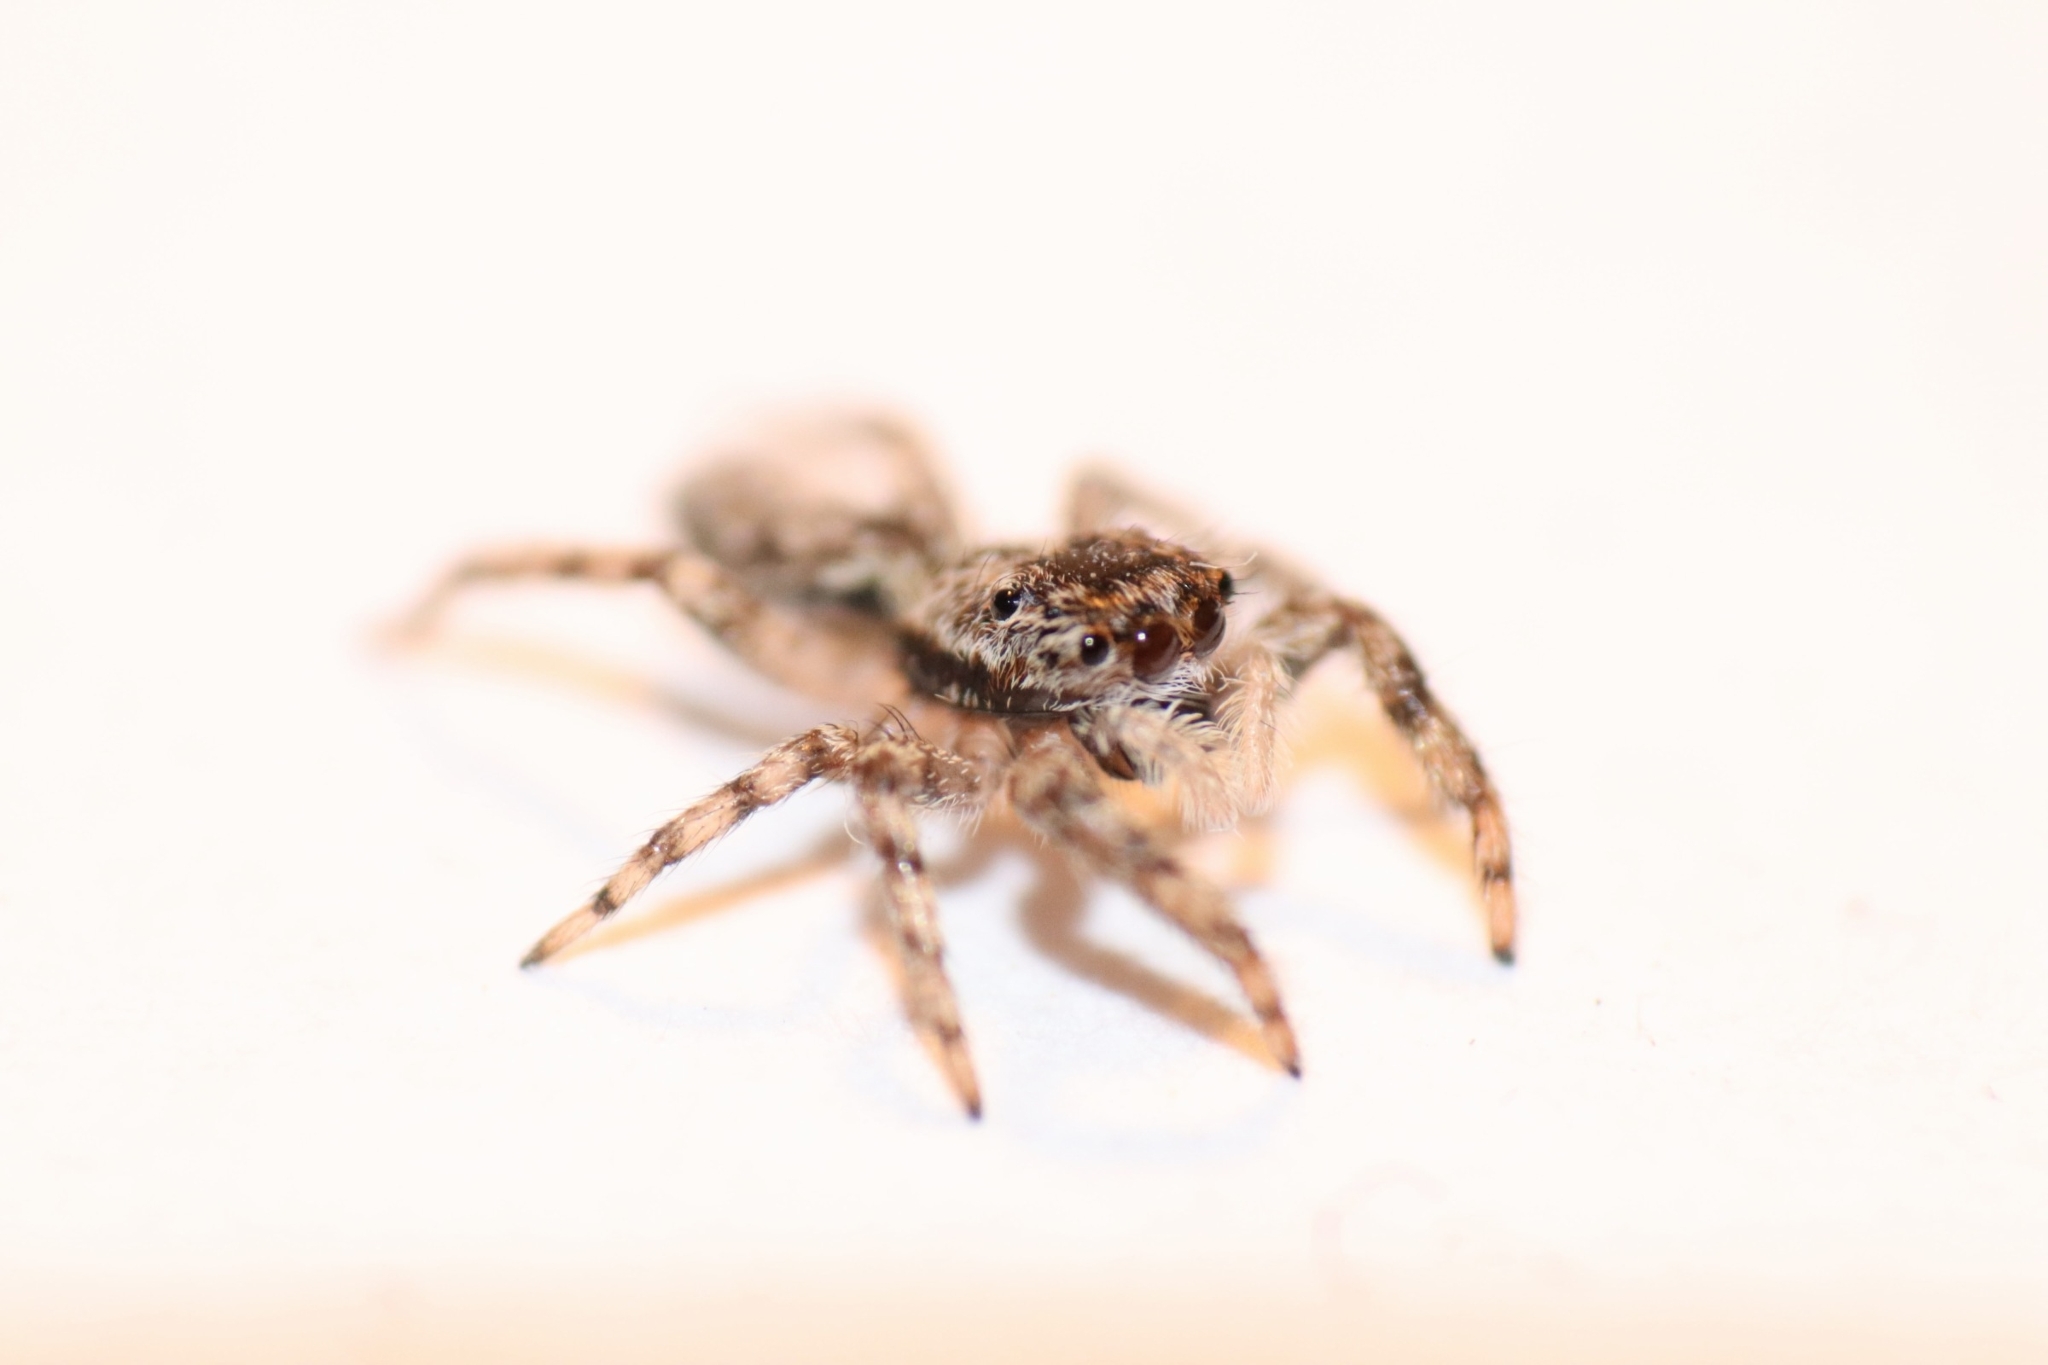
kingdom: Animalia
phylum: Arthropoda
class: Arachnida
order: Araneae
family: Salticidae
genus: Platycryptus
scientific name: Platycryptus undatus
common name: Tan jumping spider
